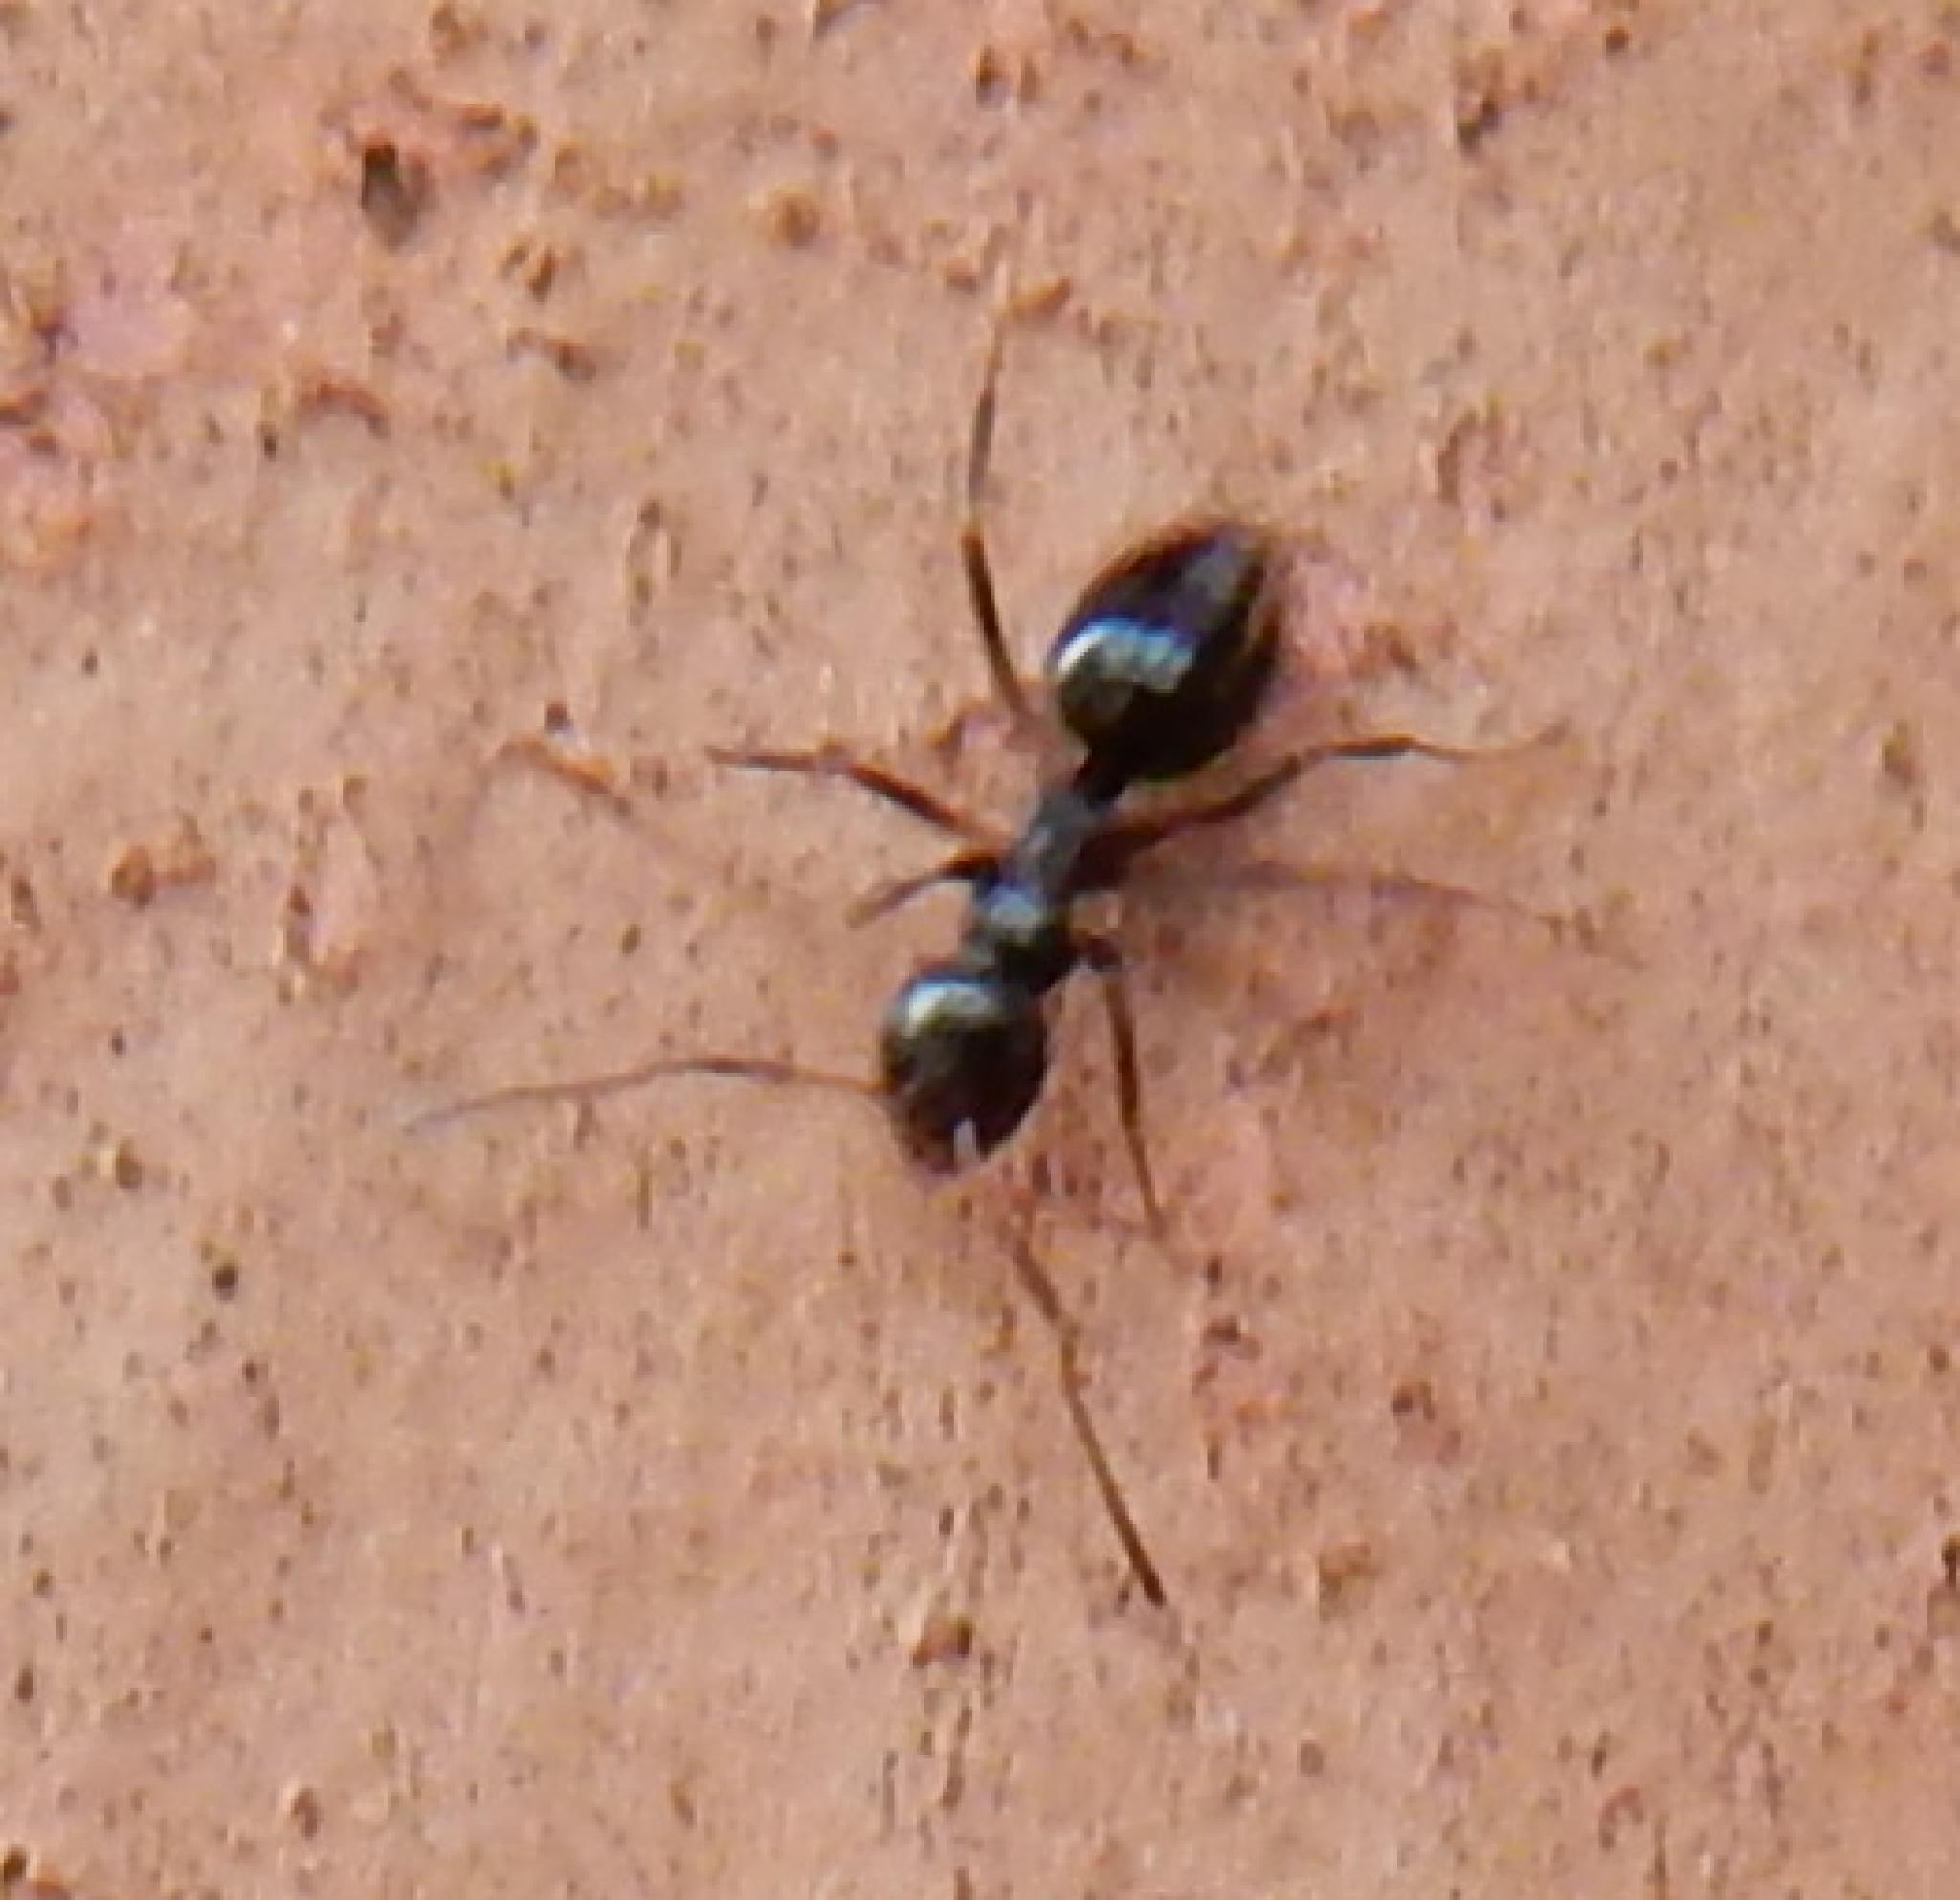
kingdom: Animalia
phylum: Arthropoda
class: Insecta
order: Hymenoptera
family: Formicidae
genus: Tapinoma
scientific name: Tapinoma pallipes
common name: Ant
